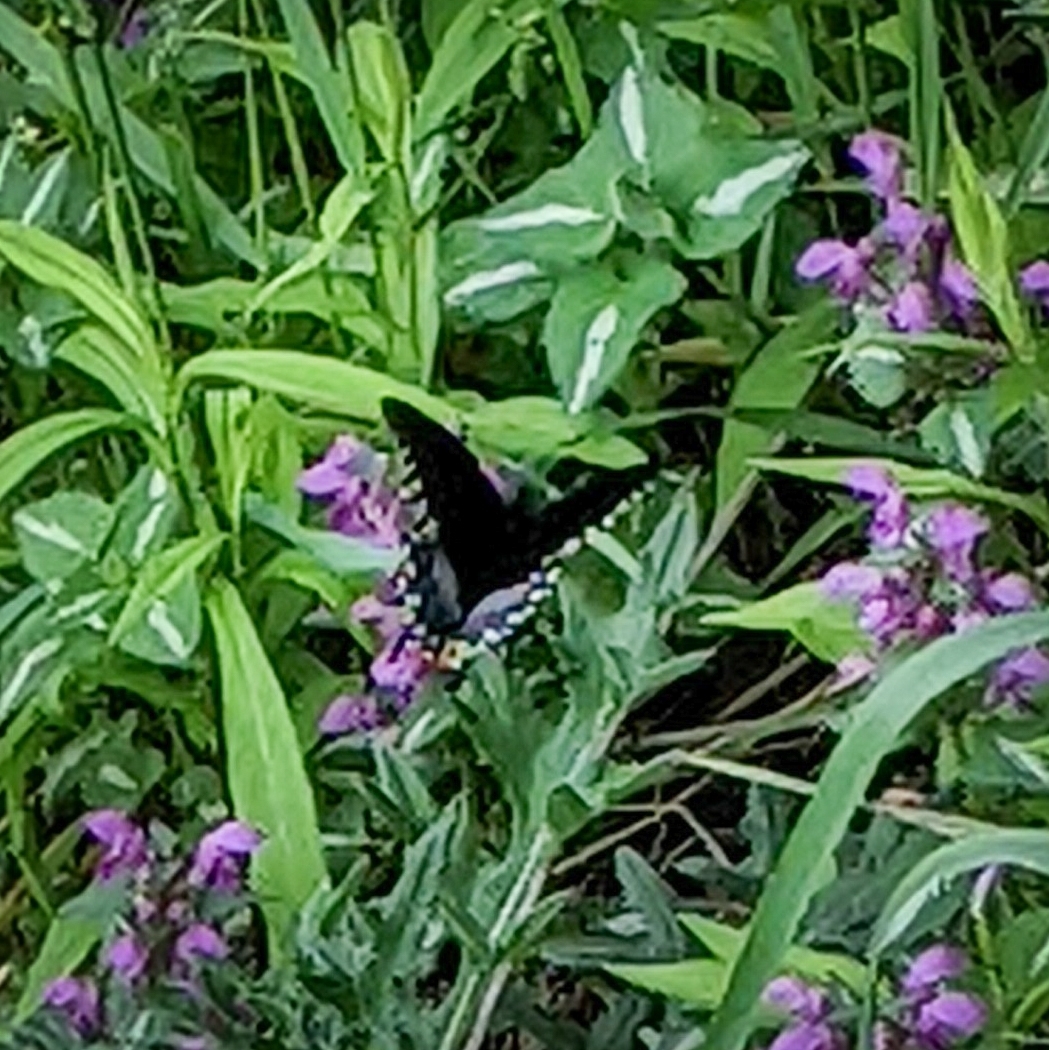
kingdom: Animalia
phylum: Arthropoda
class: Insecta
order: Lepidoptera
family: Papilionidae
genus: Papilio
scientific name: Papilio troilus
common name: Spicebush swallowtail
